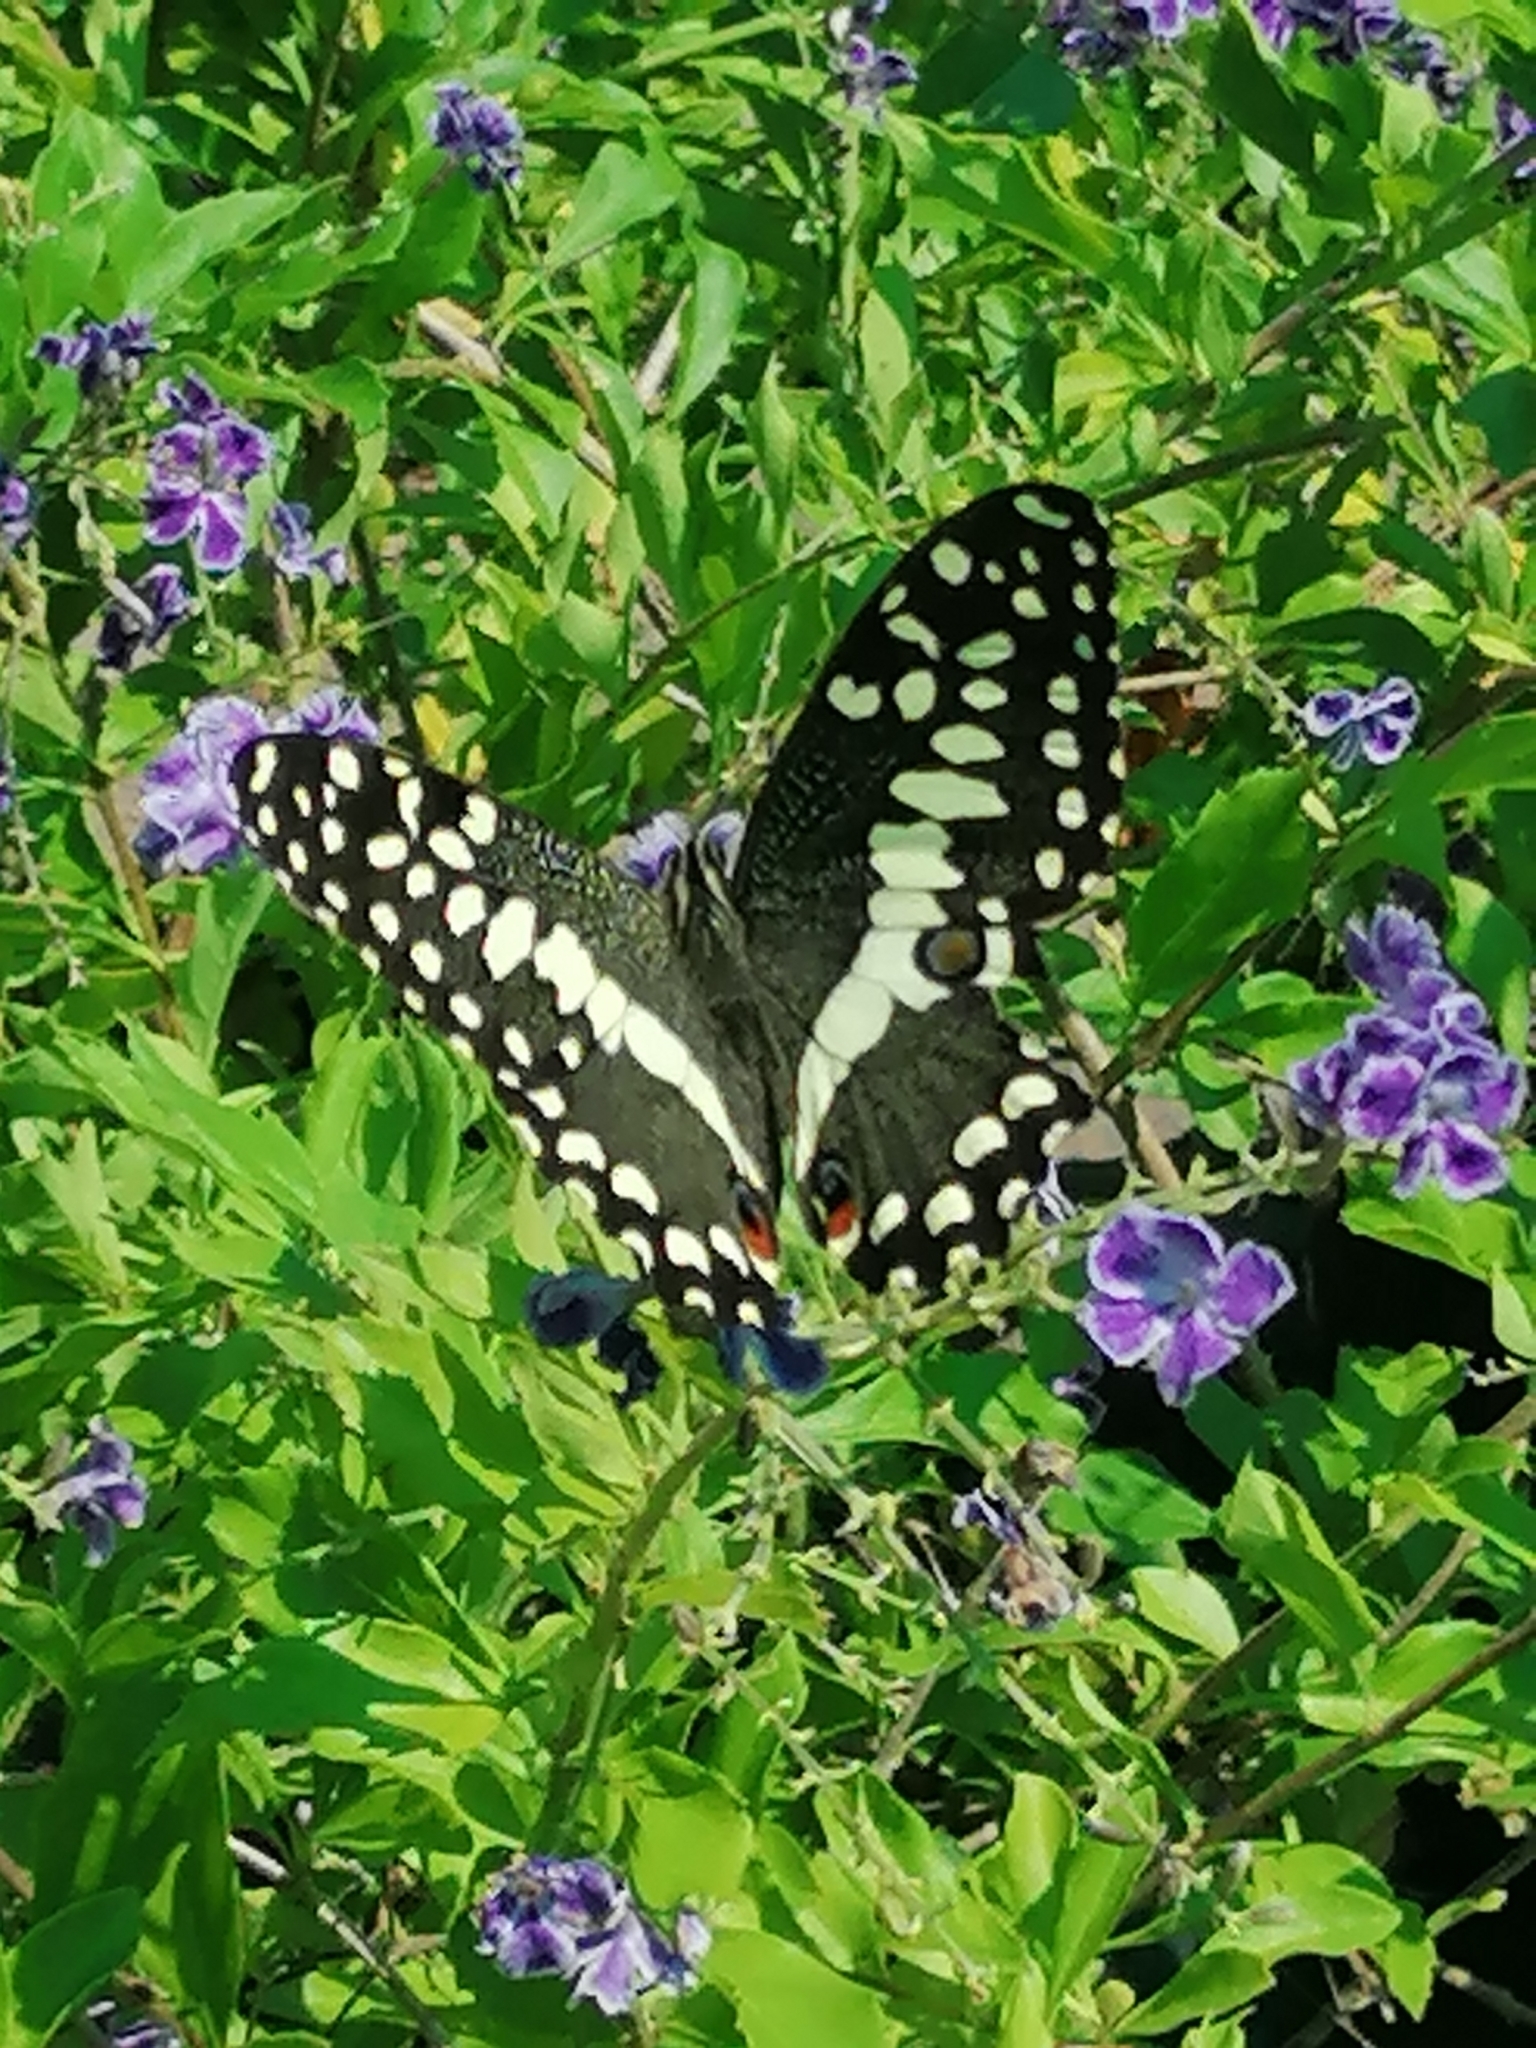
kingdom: Animalia
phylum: Arthropoda
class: Insecta
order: Lepidoptera
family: Papilionidae
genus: Papilio
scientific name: Papilio demodocus
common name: Christmas butterfly
